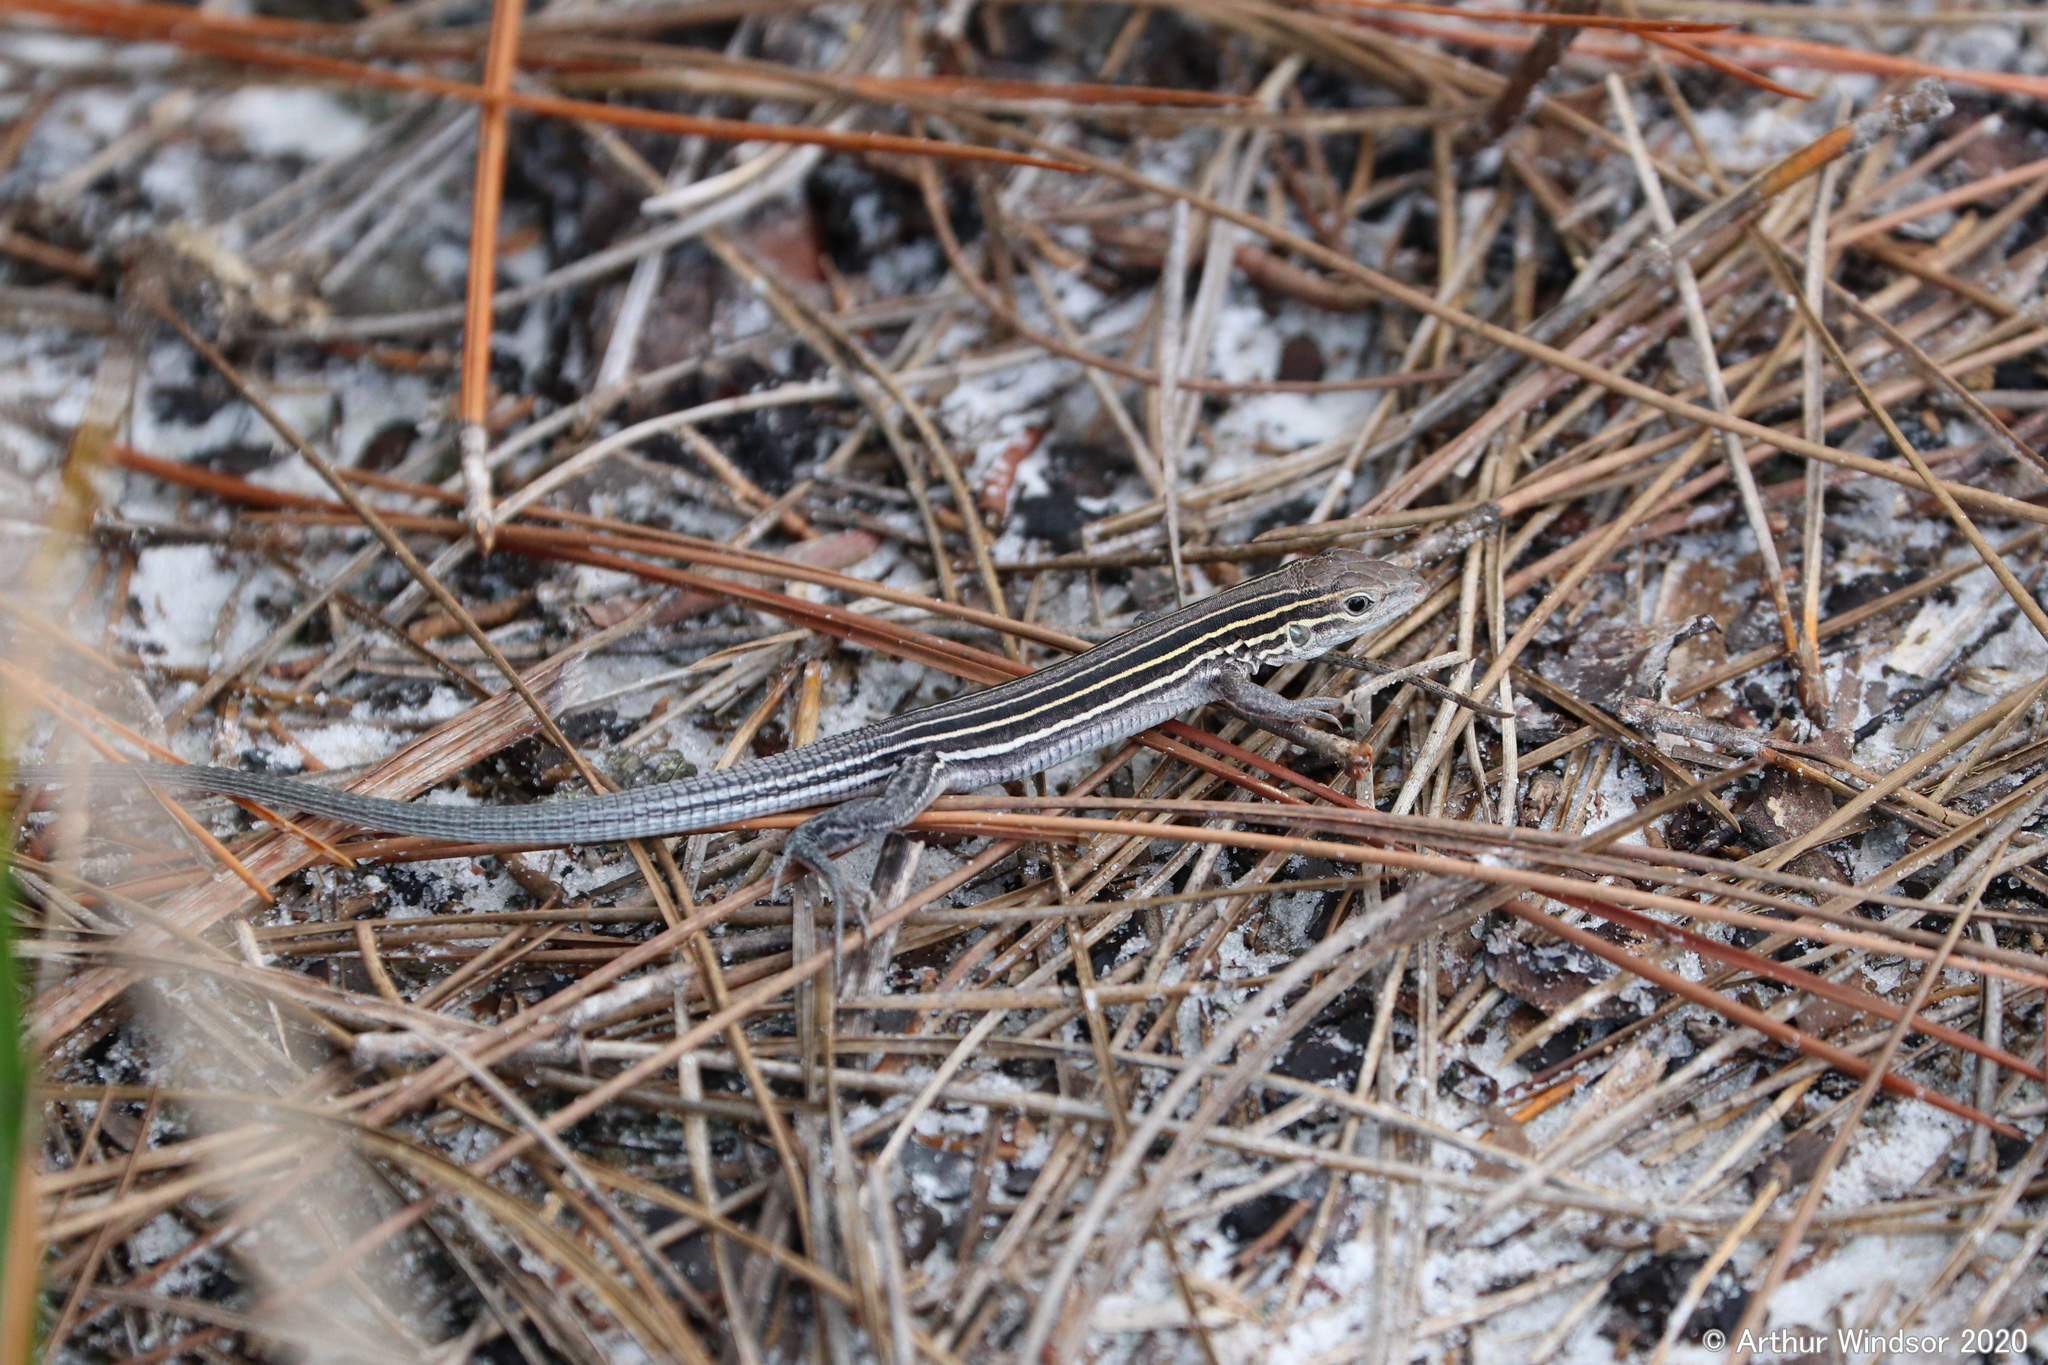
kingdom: Animalia
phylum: Chordata
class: Squamata
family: Teiidae
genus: Aspidoscelis
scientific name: Aspidoscelis sexlineatus
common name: Six-lined racerunner
